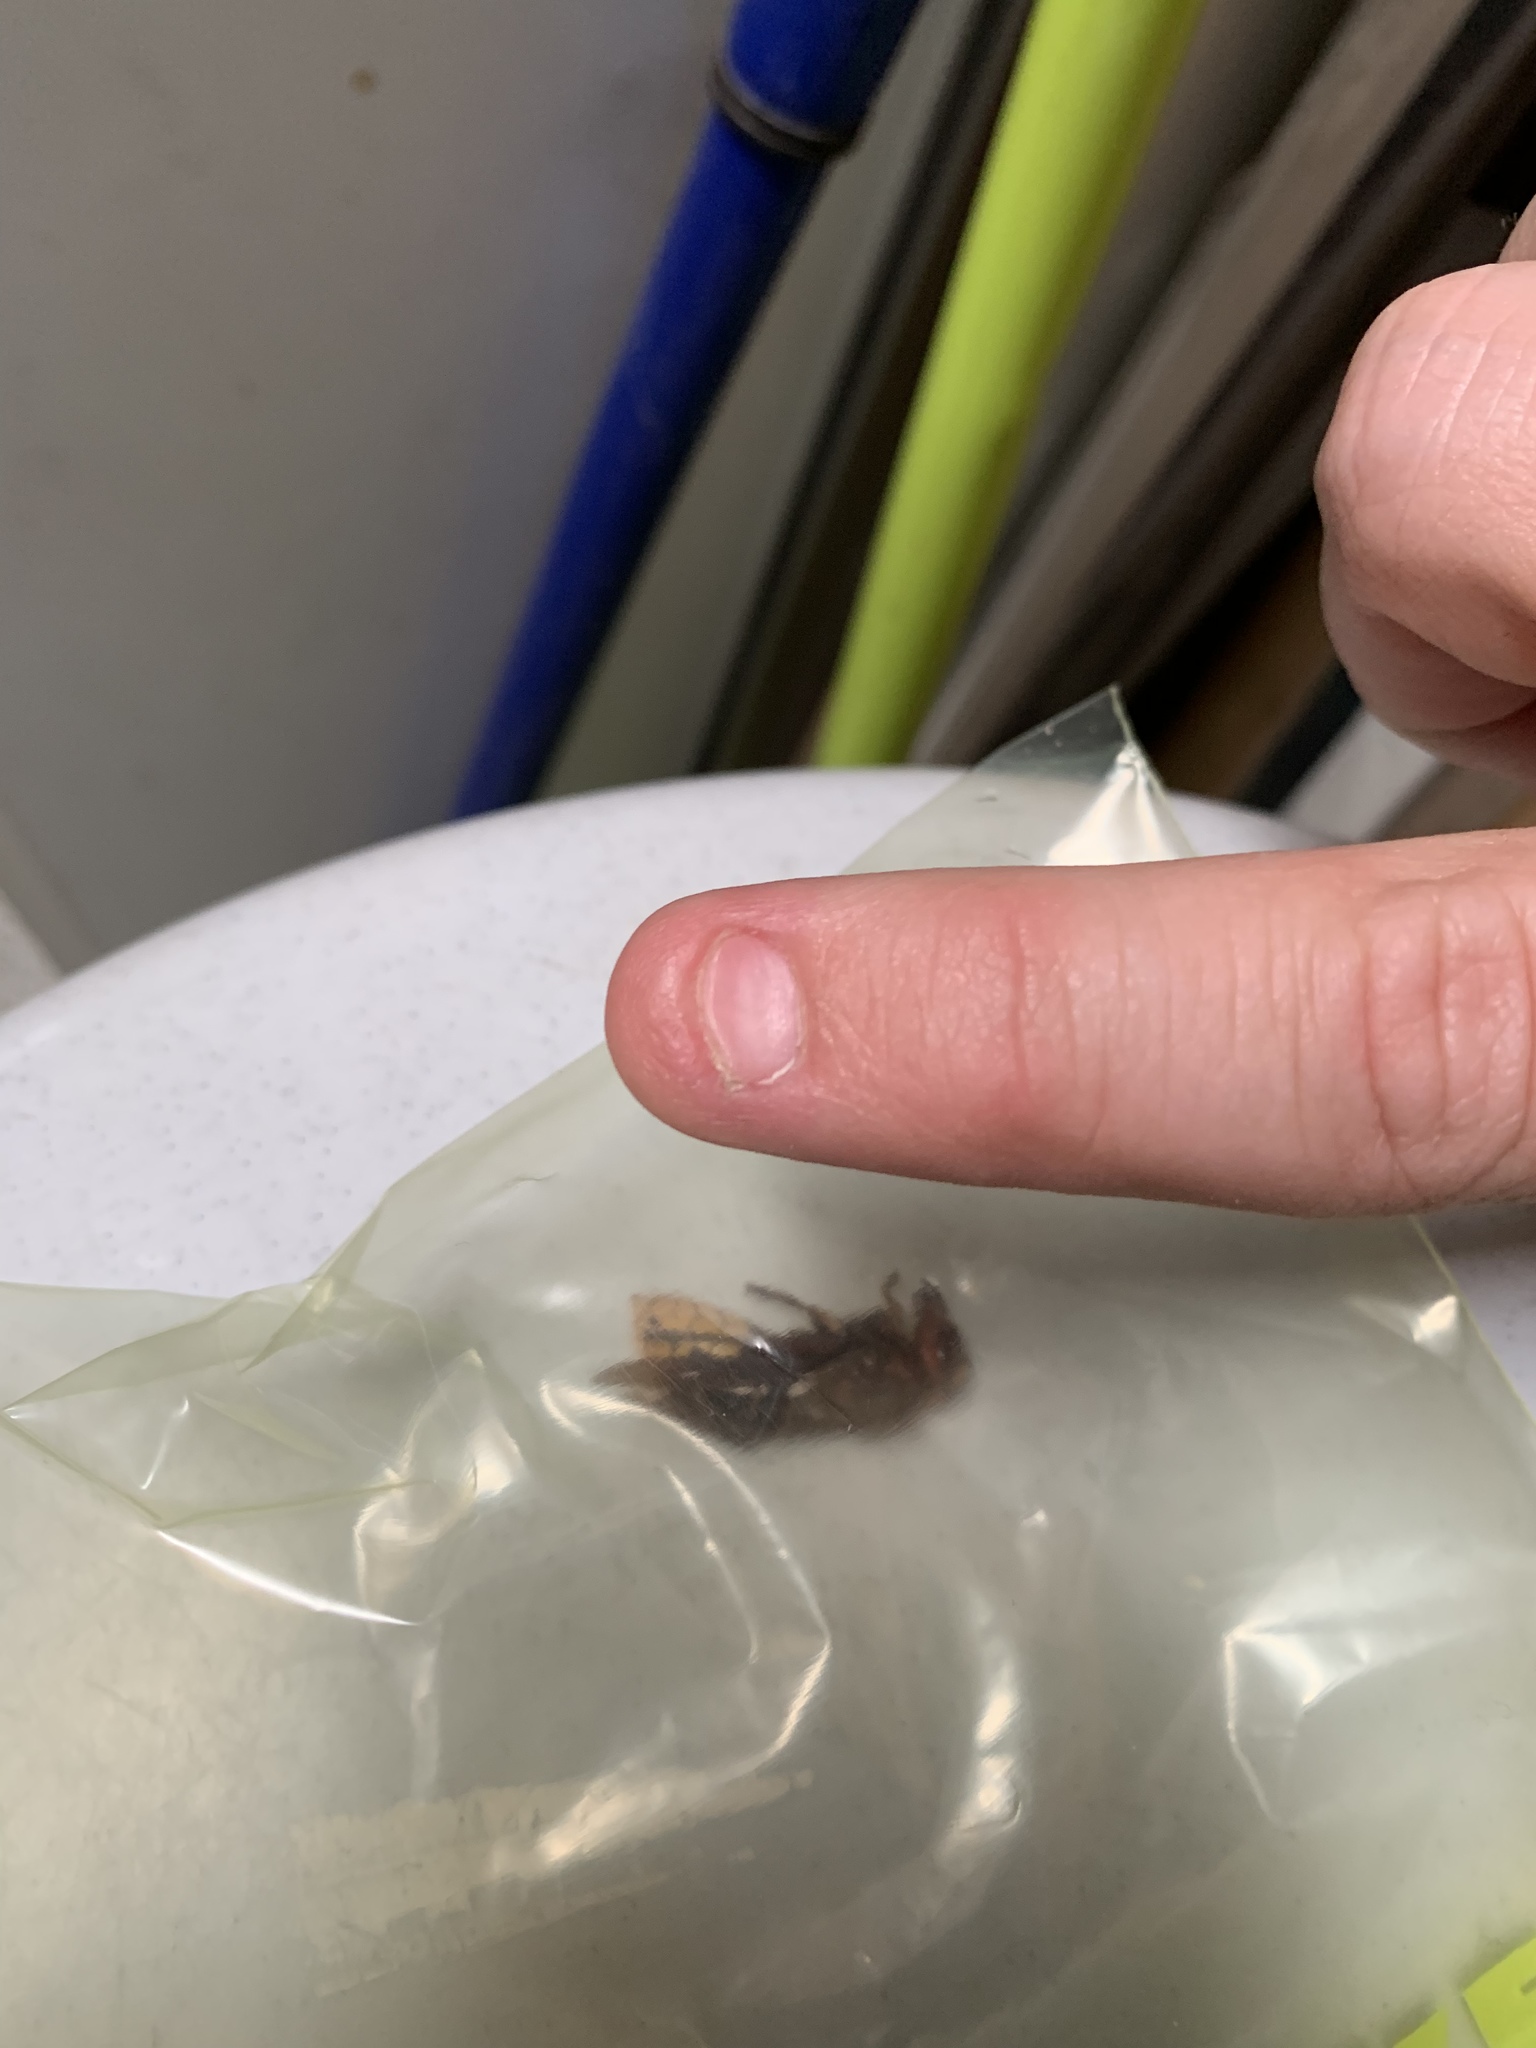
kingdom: Animalia
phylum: Arthropoda
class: Insecta
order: Hymenoptera
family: Vespidae
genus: Vespa
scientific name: Vespa crabro
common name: Hornet
